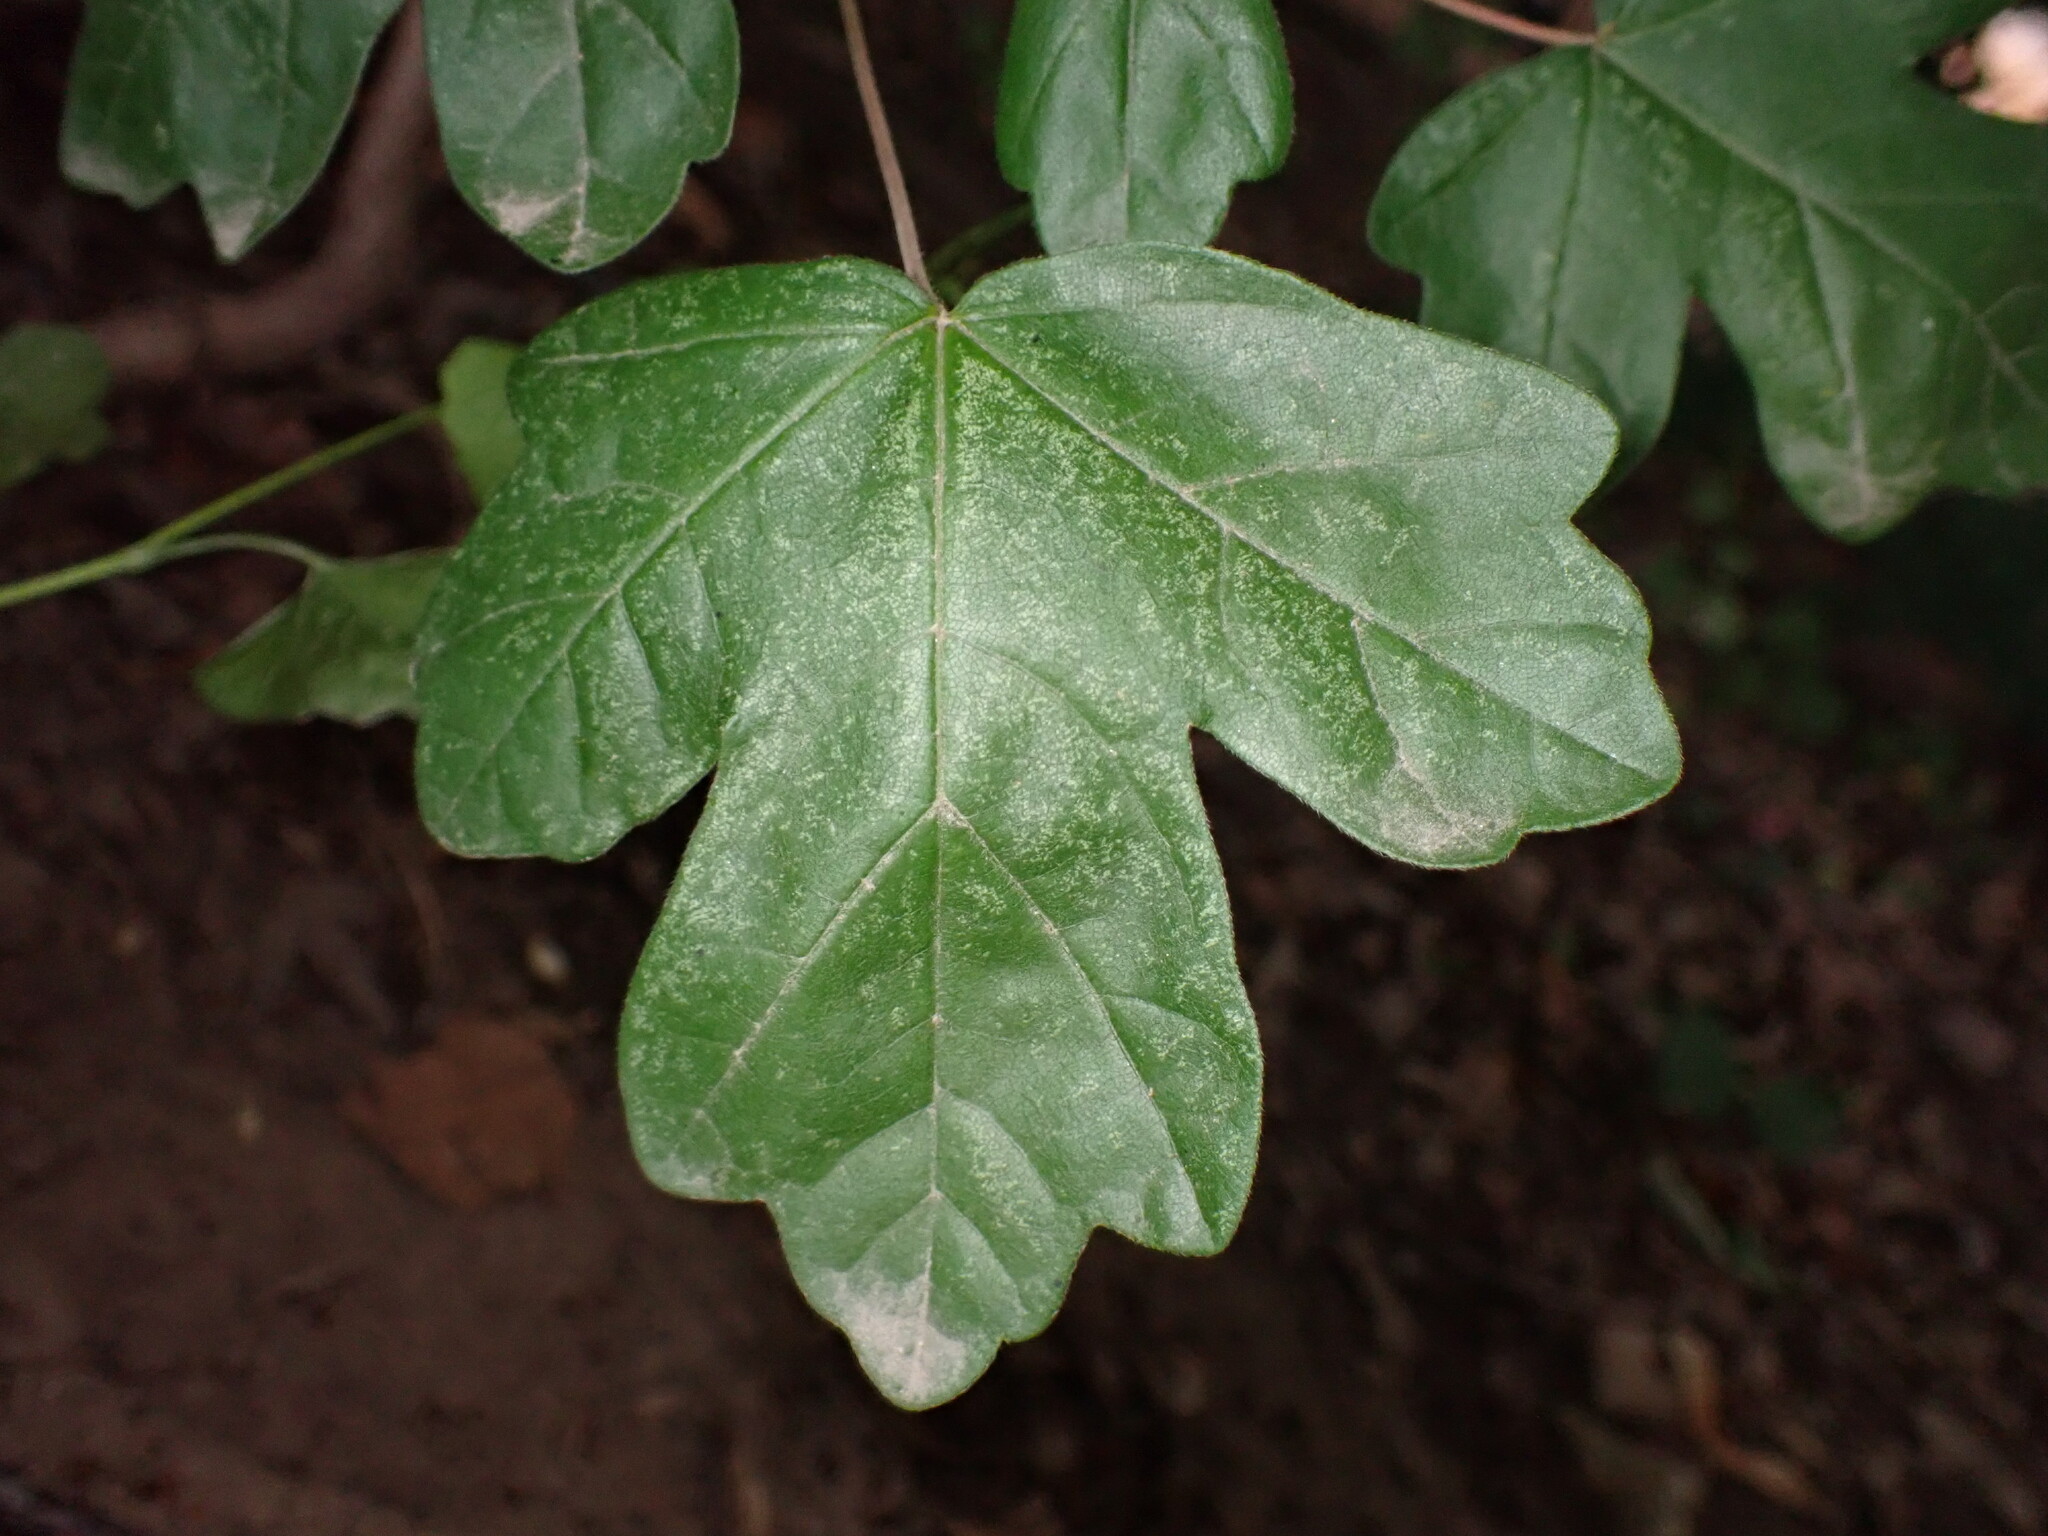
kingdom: Plantae
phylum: Tracheophyta
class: Magnoliopsida
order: Sapindales
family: Sapindaceae
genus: Acer
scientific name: Acer campestre
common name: Field maple
